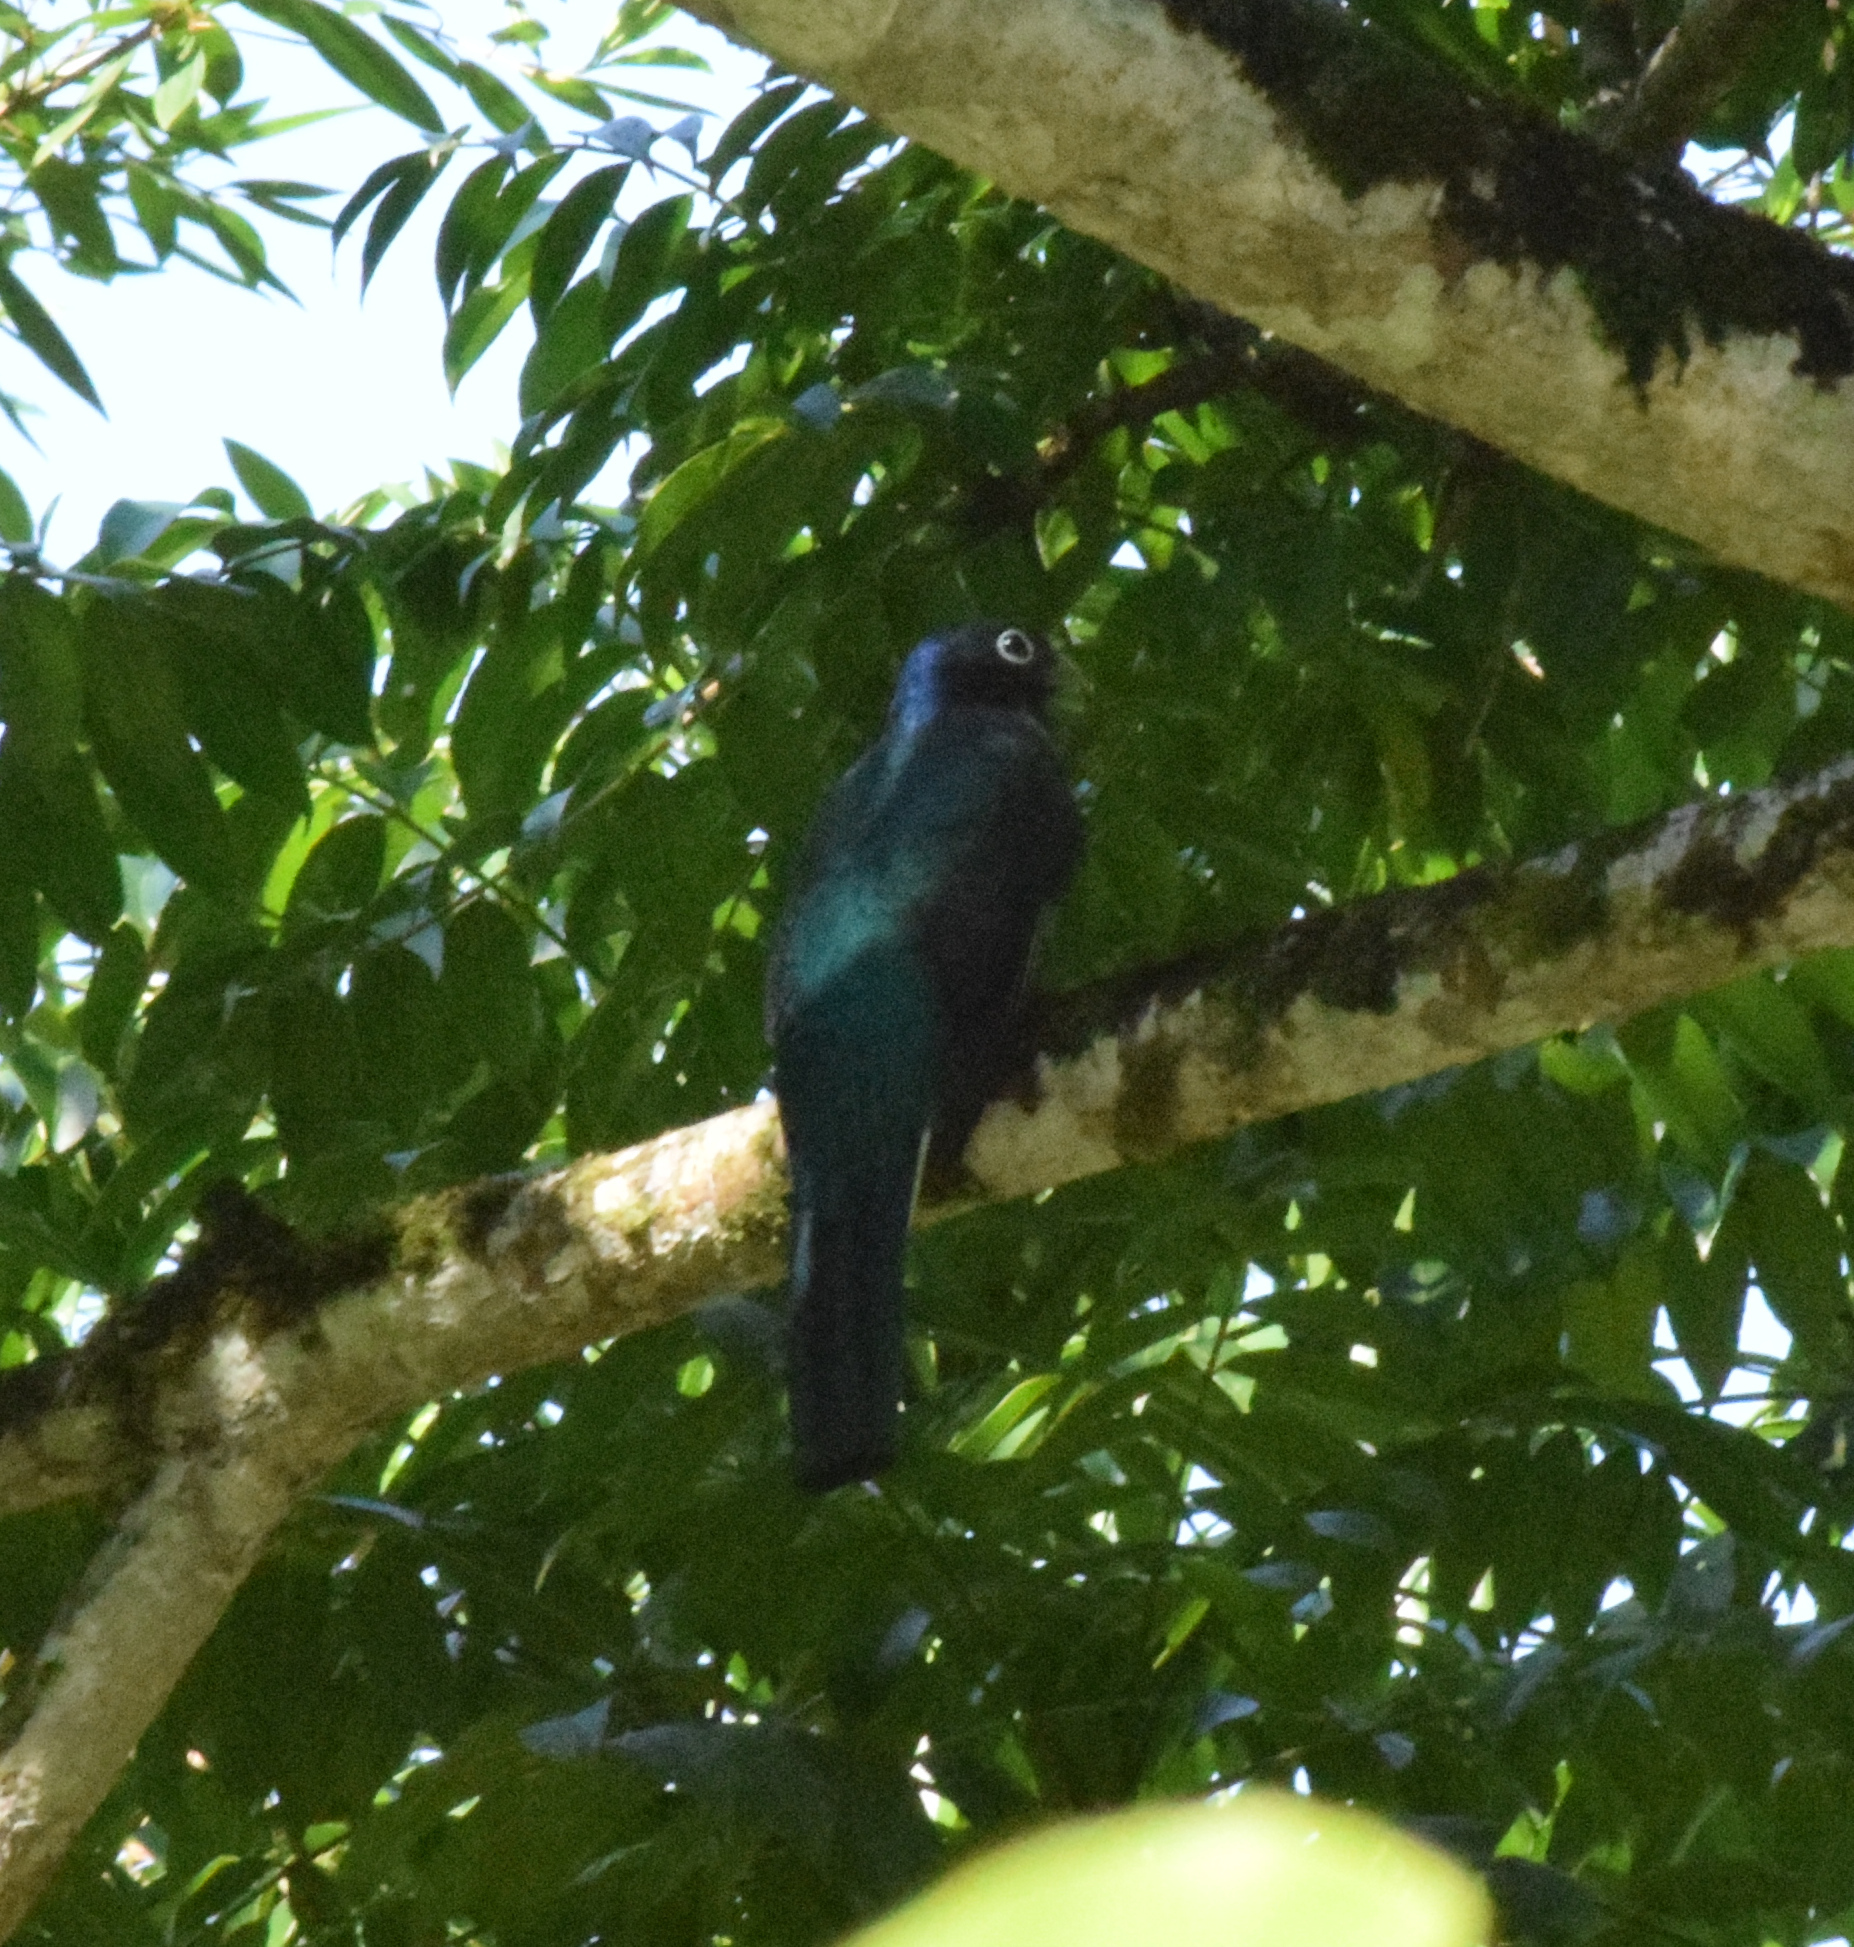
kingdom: Animalia
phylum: Chordata
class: Aves
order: Trogoniformes
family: Trogonidae
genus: Trogon
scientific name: Trogon viridis
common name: Green-backed trogon
